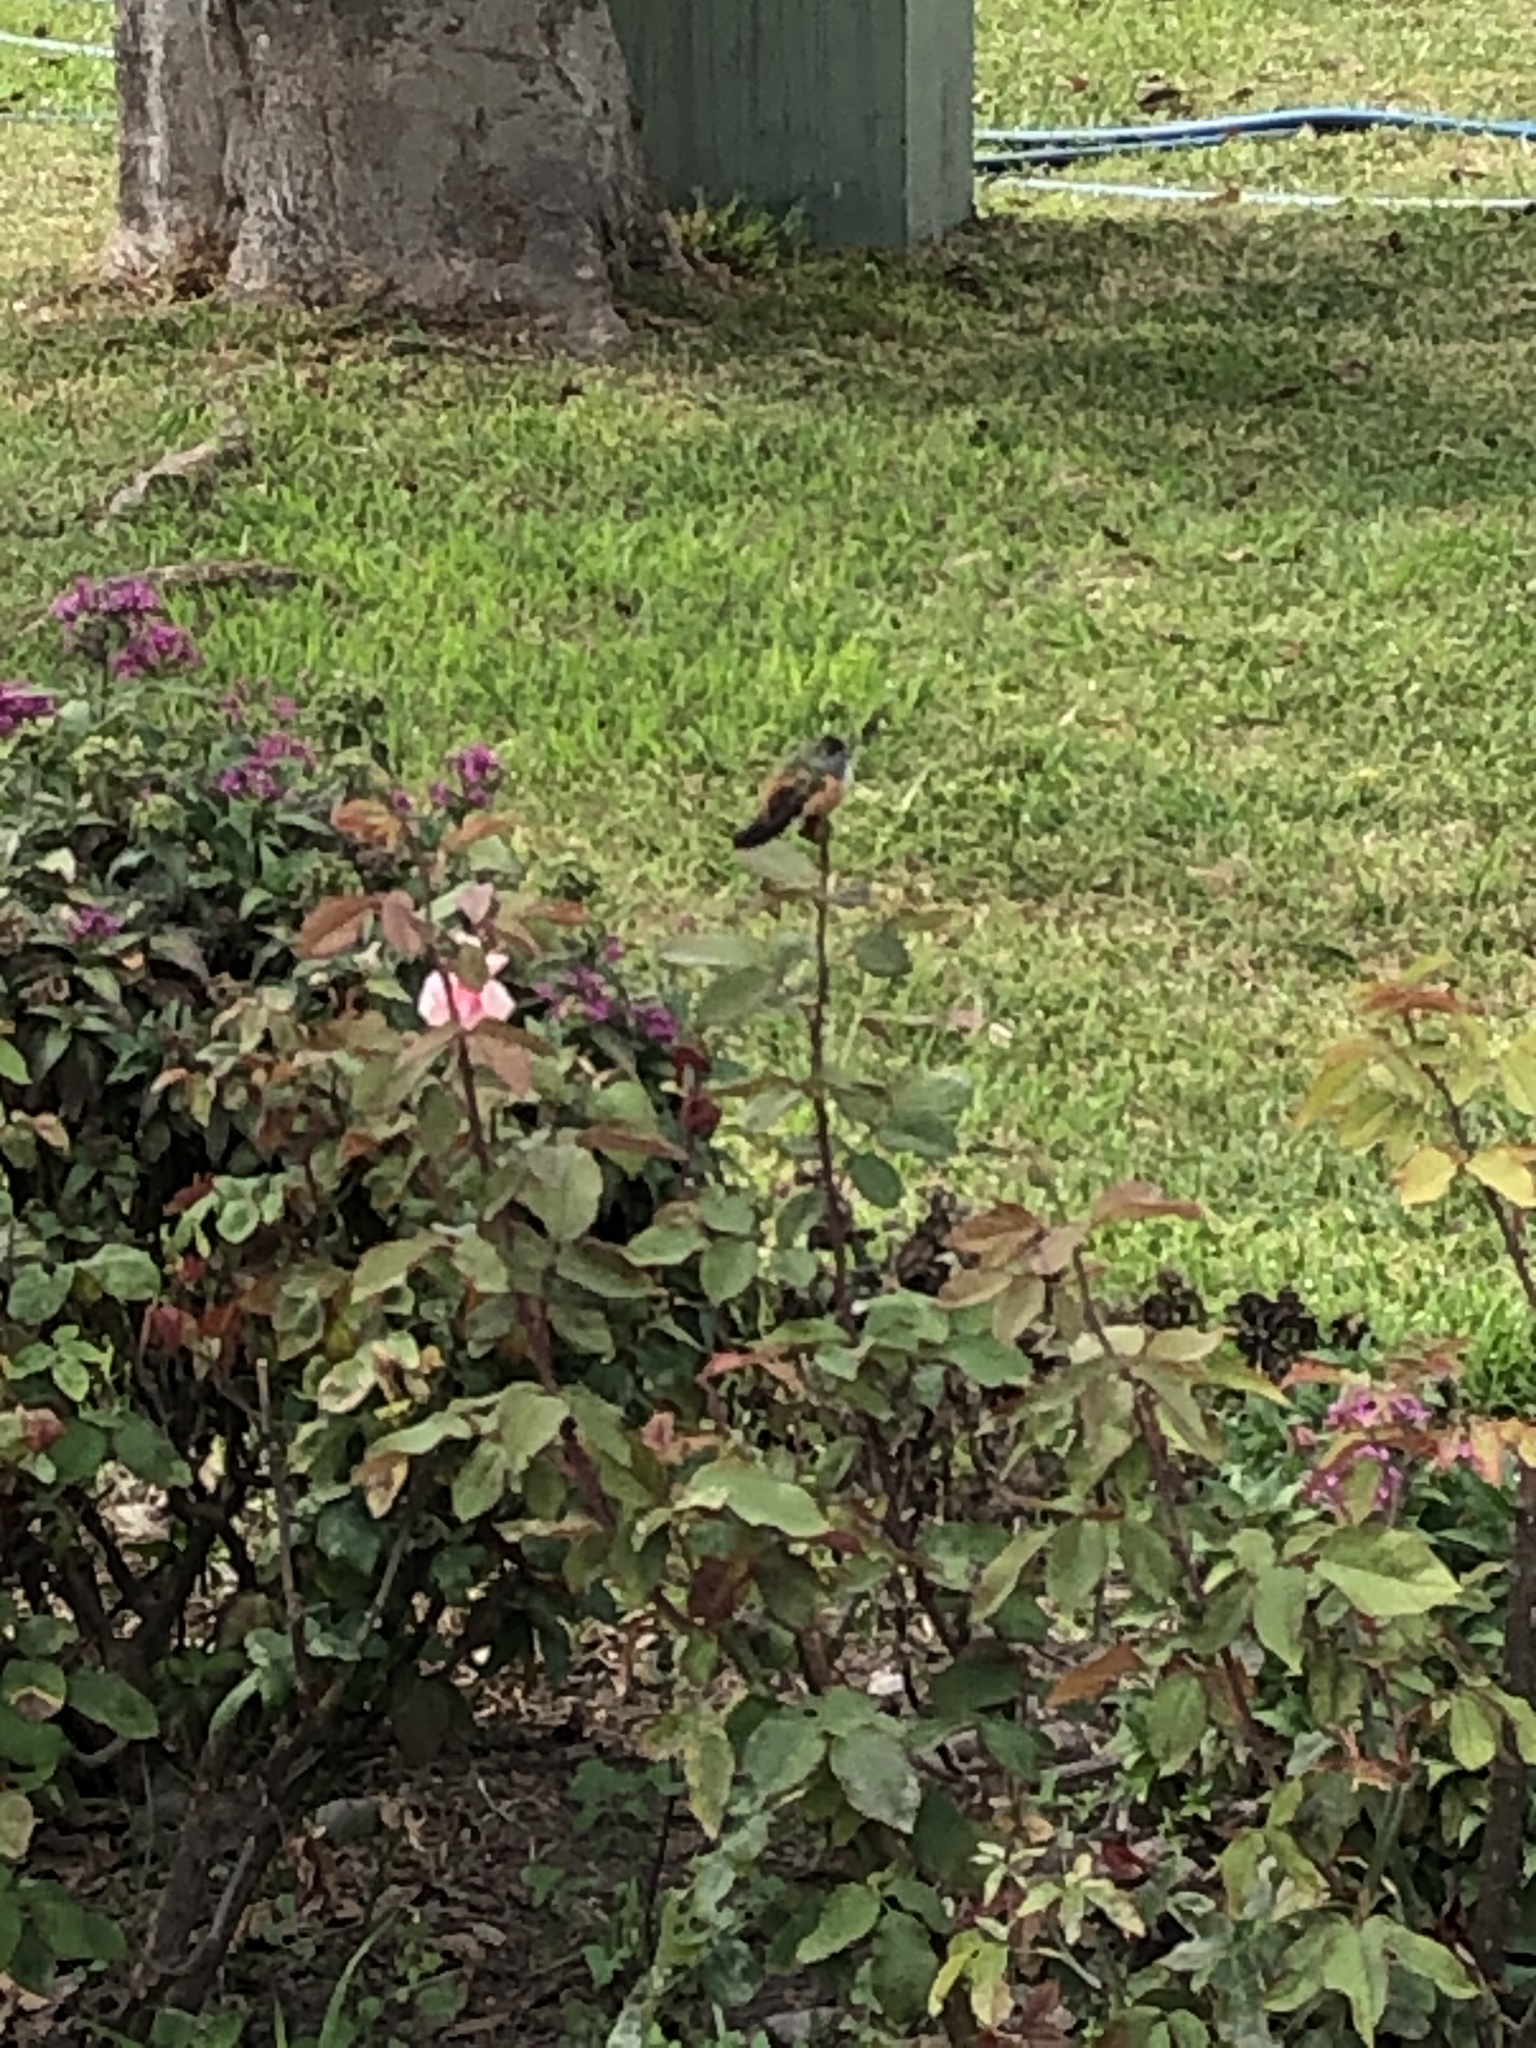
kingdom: Animalia
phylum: Chordata
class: Aves
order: Apodiformes
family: Trochilidae
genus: Amazilis
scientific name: Amazilis amazilia
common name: Amazilia hummingbird
